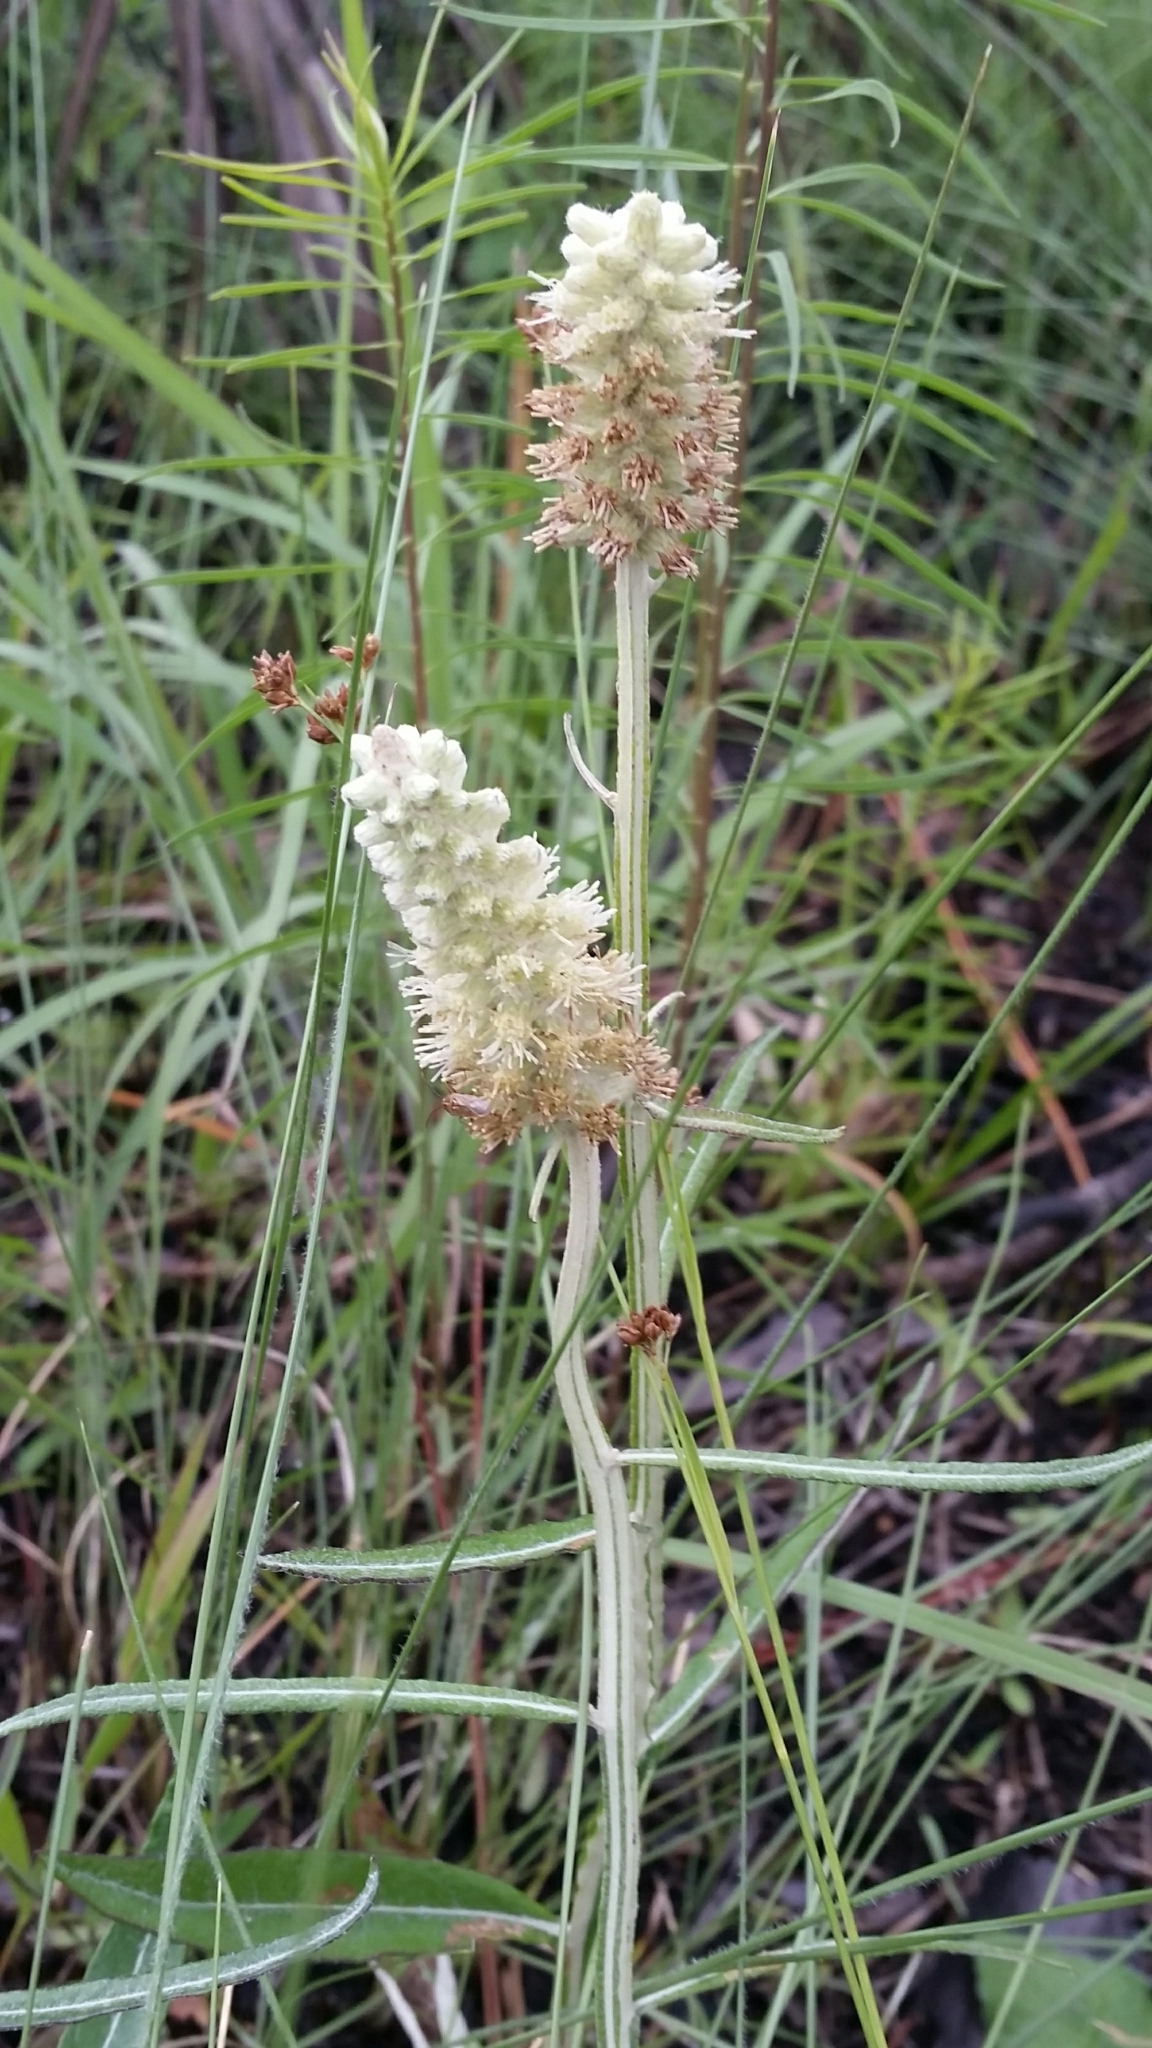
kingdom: Plantae
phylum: Tracheophyta
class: Magnoliopsida
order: Asterales
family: Asteraceae
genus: Pterocaulon
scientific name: Pterocaulon pycnostachyum
